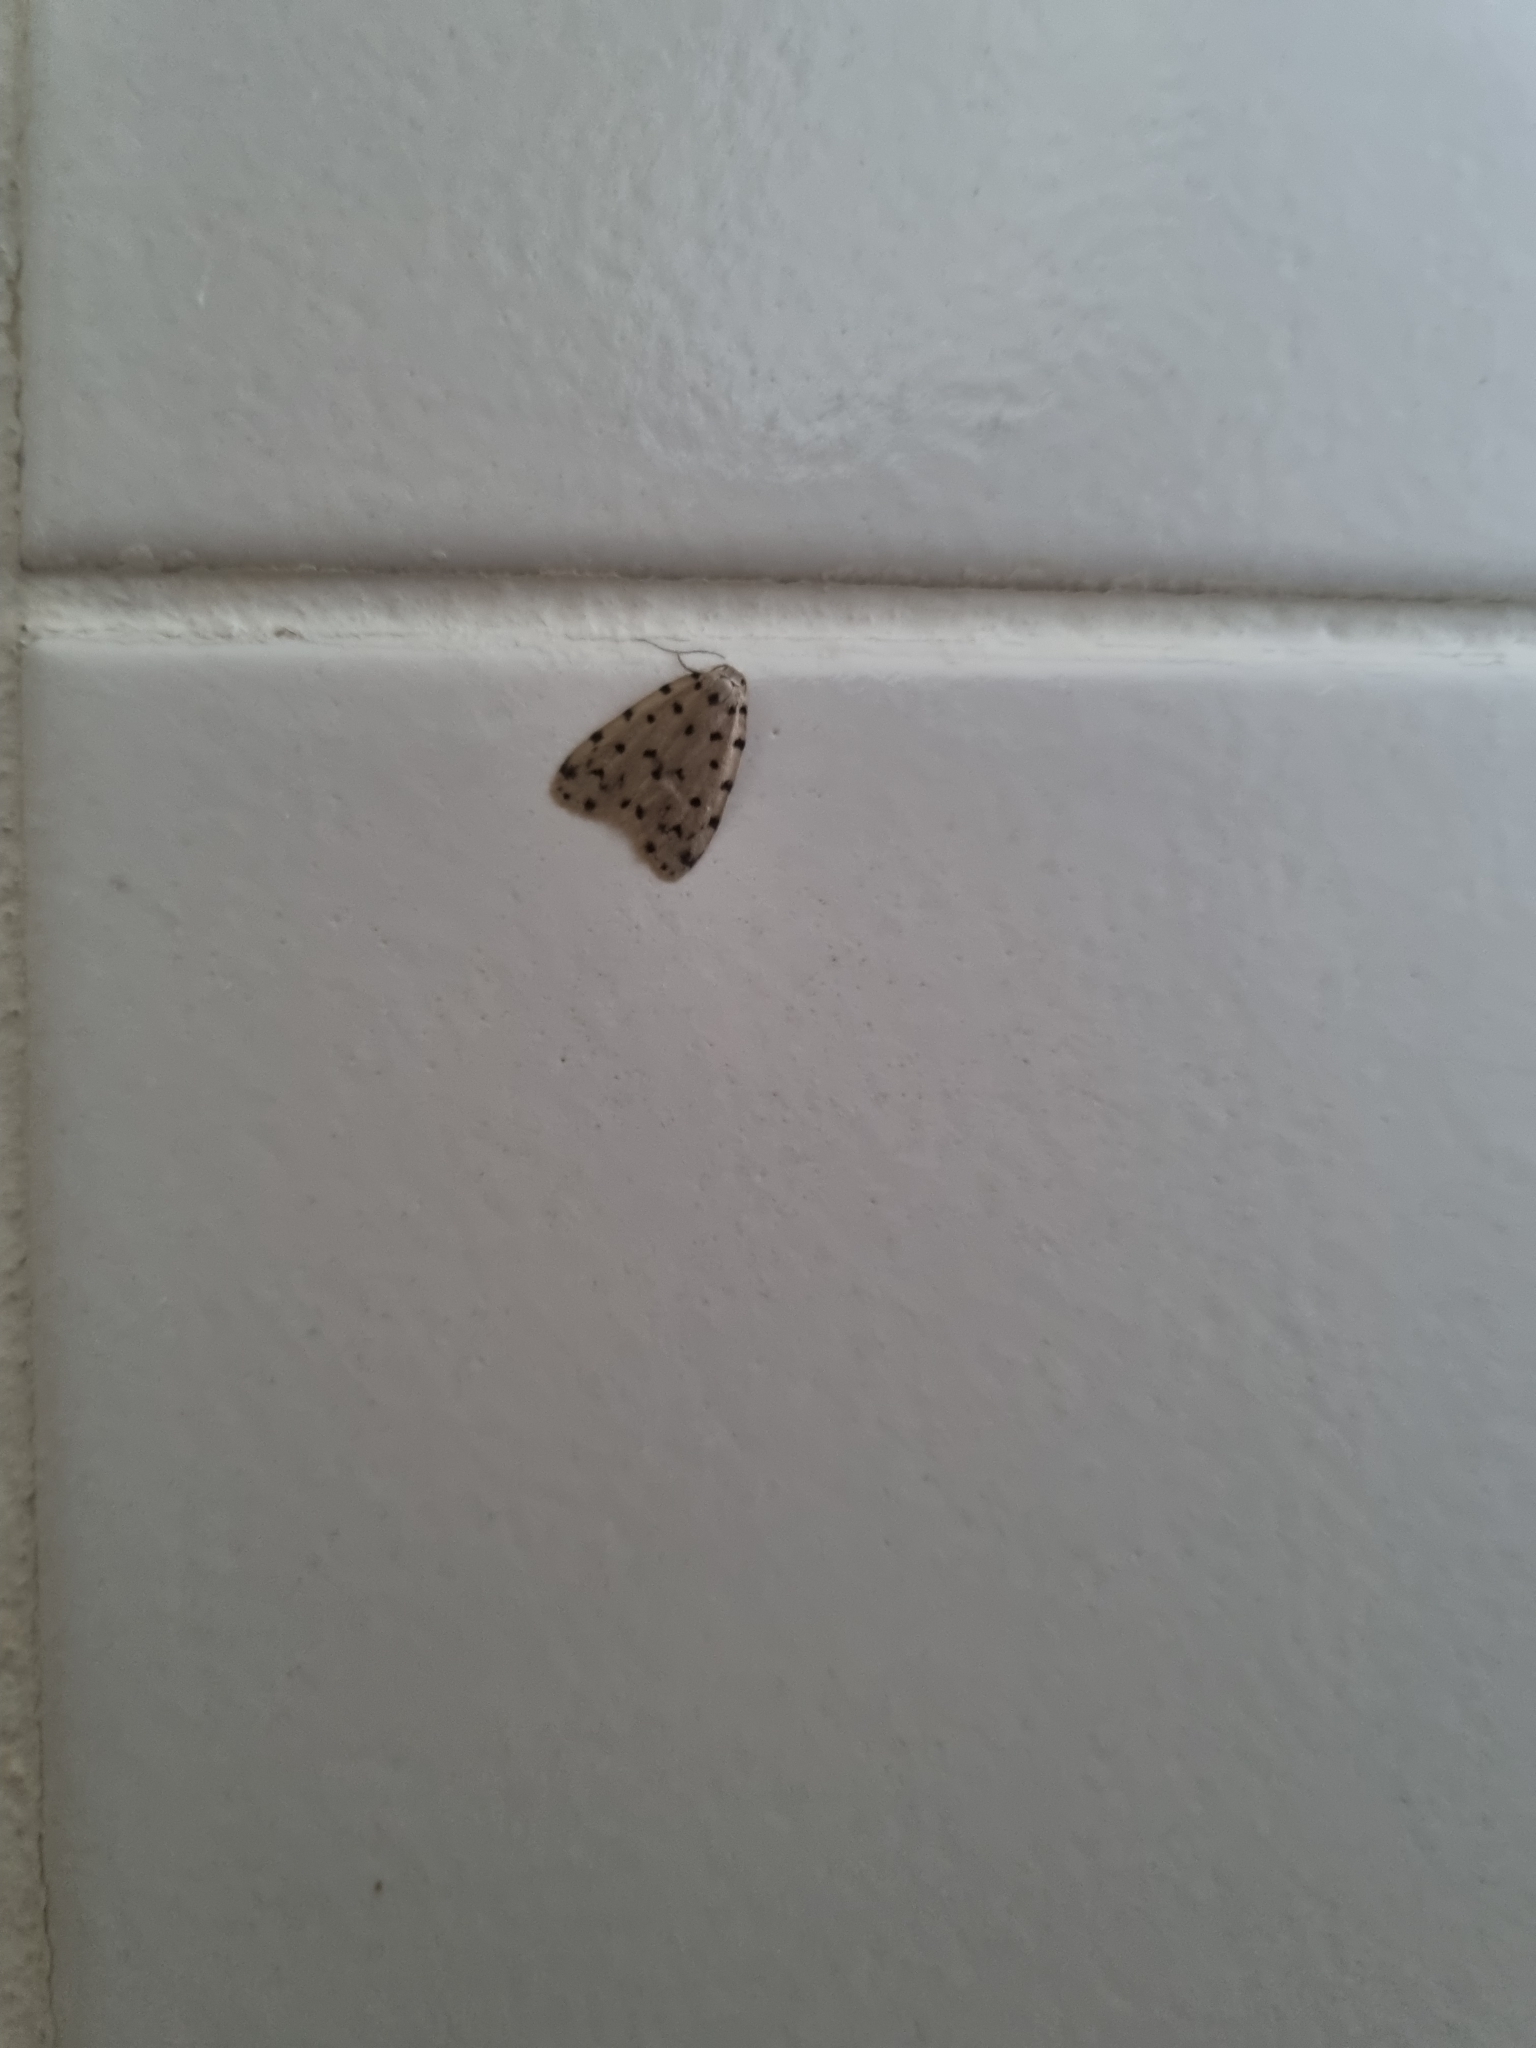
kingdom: Animalia
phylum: Arthropoda
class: Insecta
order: Lepidoptera
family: Erebidae
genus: Siccia
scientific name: Siccia caffra
